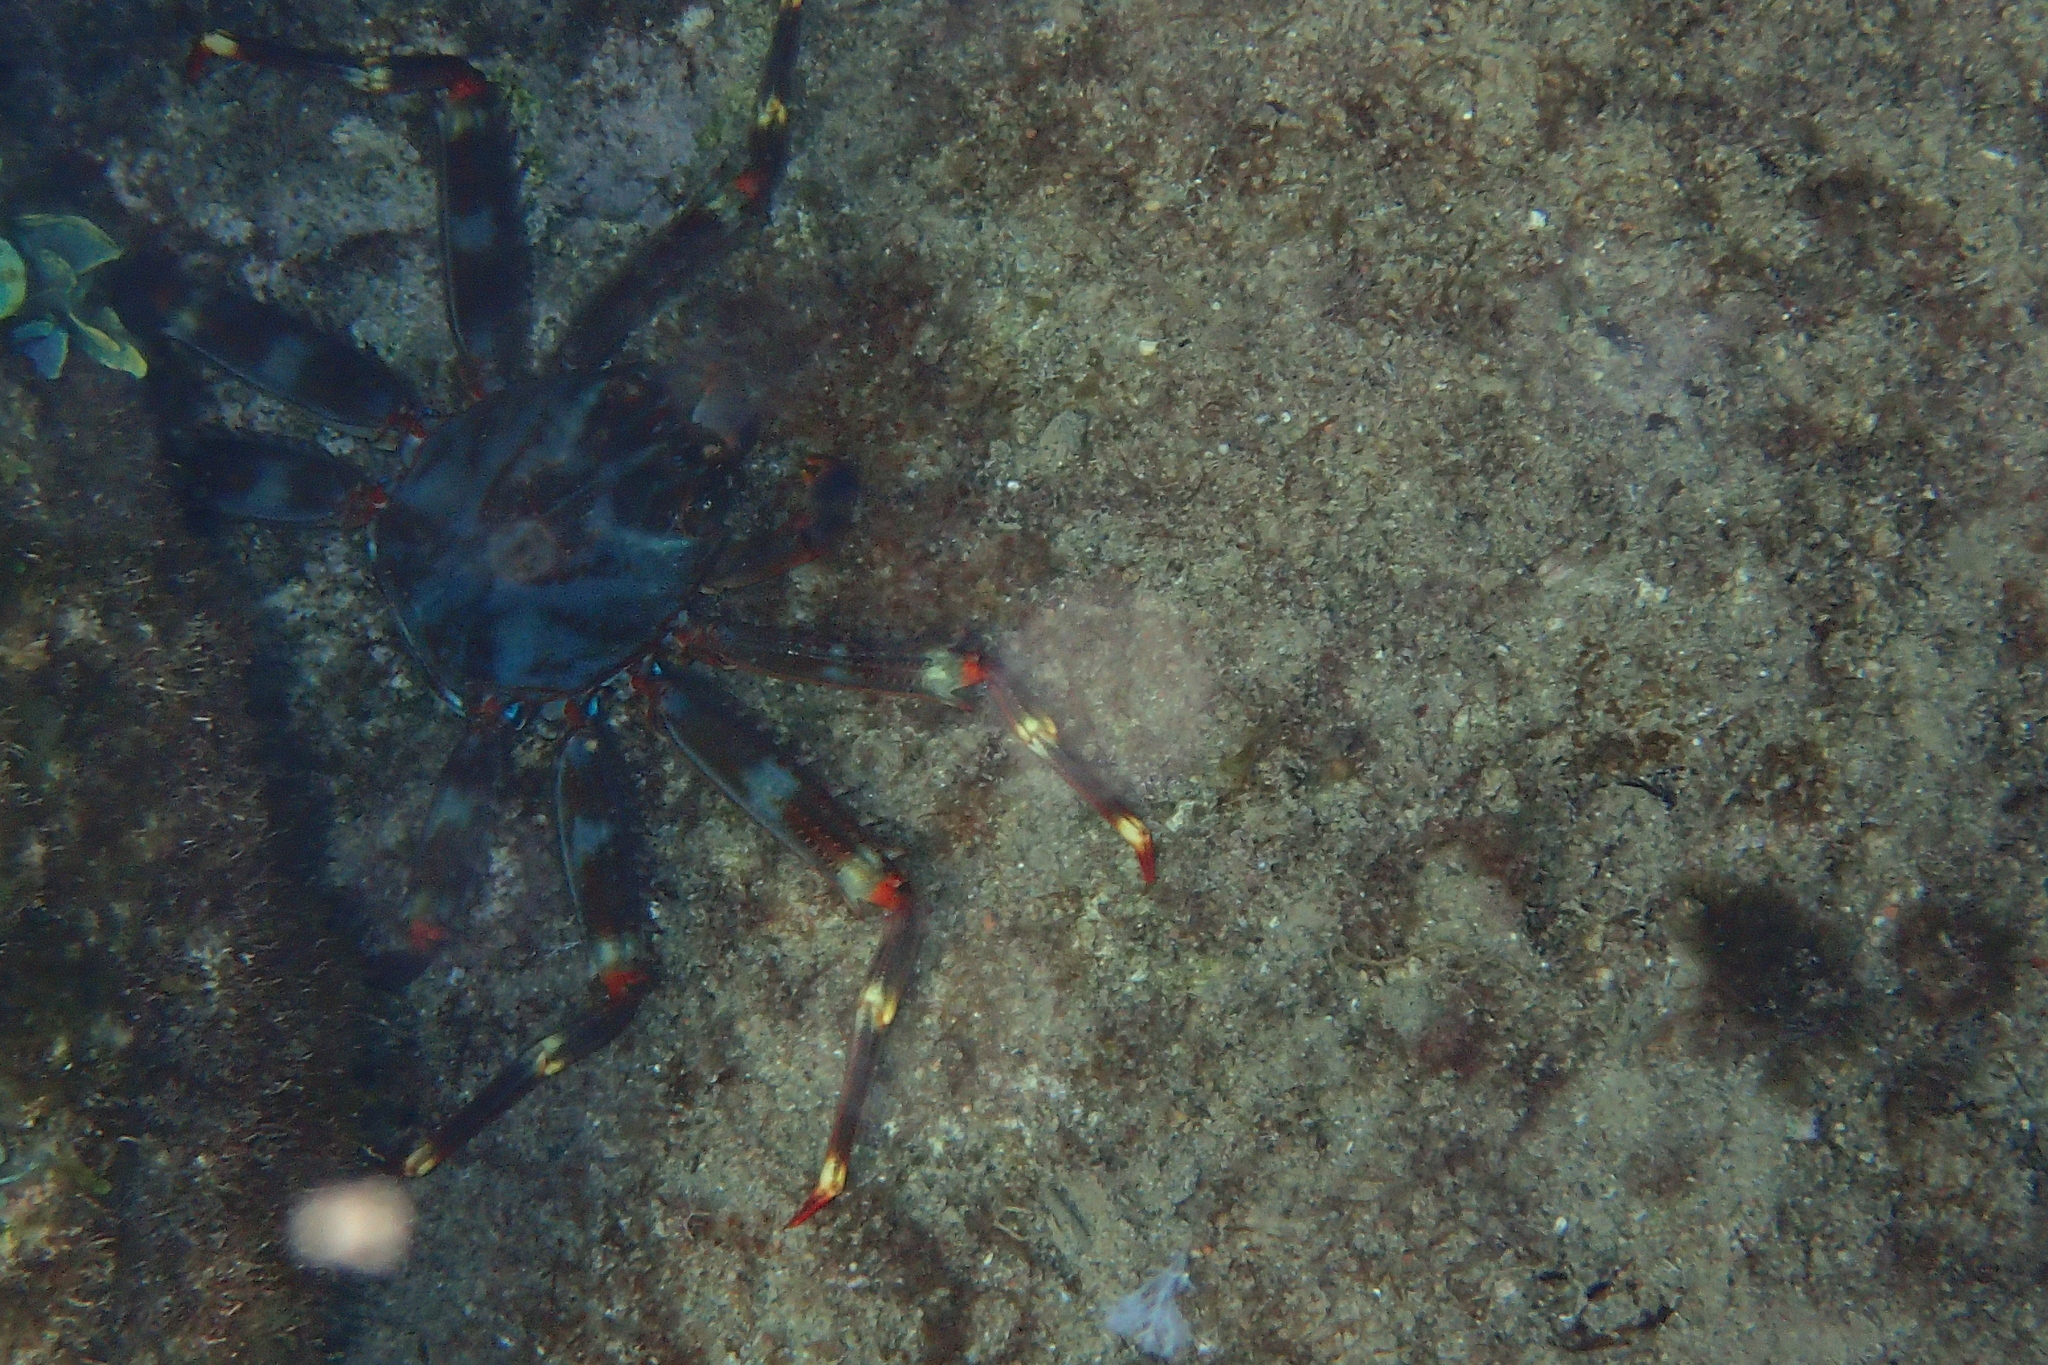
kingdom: Animalia
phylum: Arthropoda
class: Malacostraca
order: Decapoda
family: Percnidae
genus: Percnon
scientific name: Percnon gibbesi
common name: Nimble spray crab
